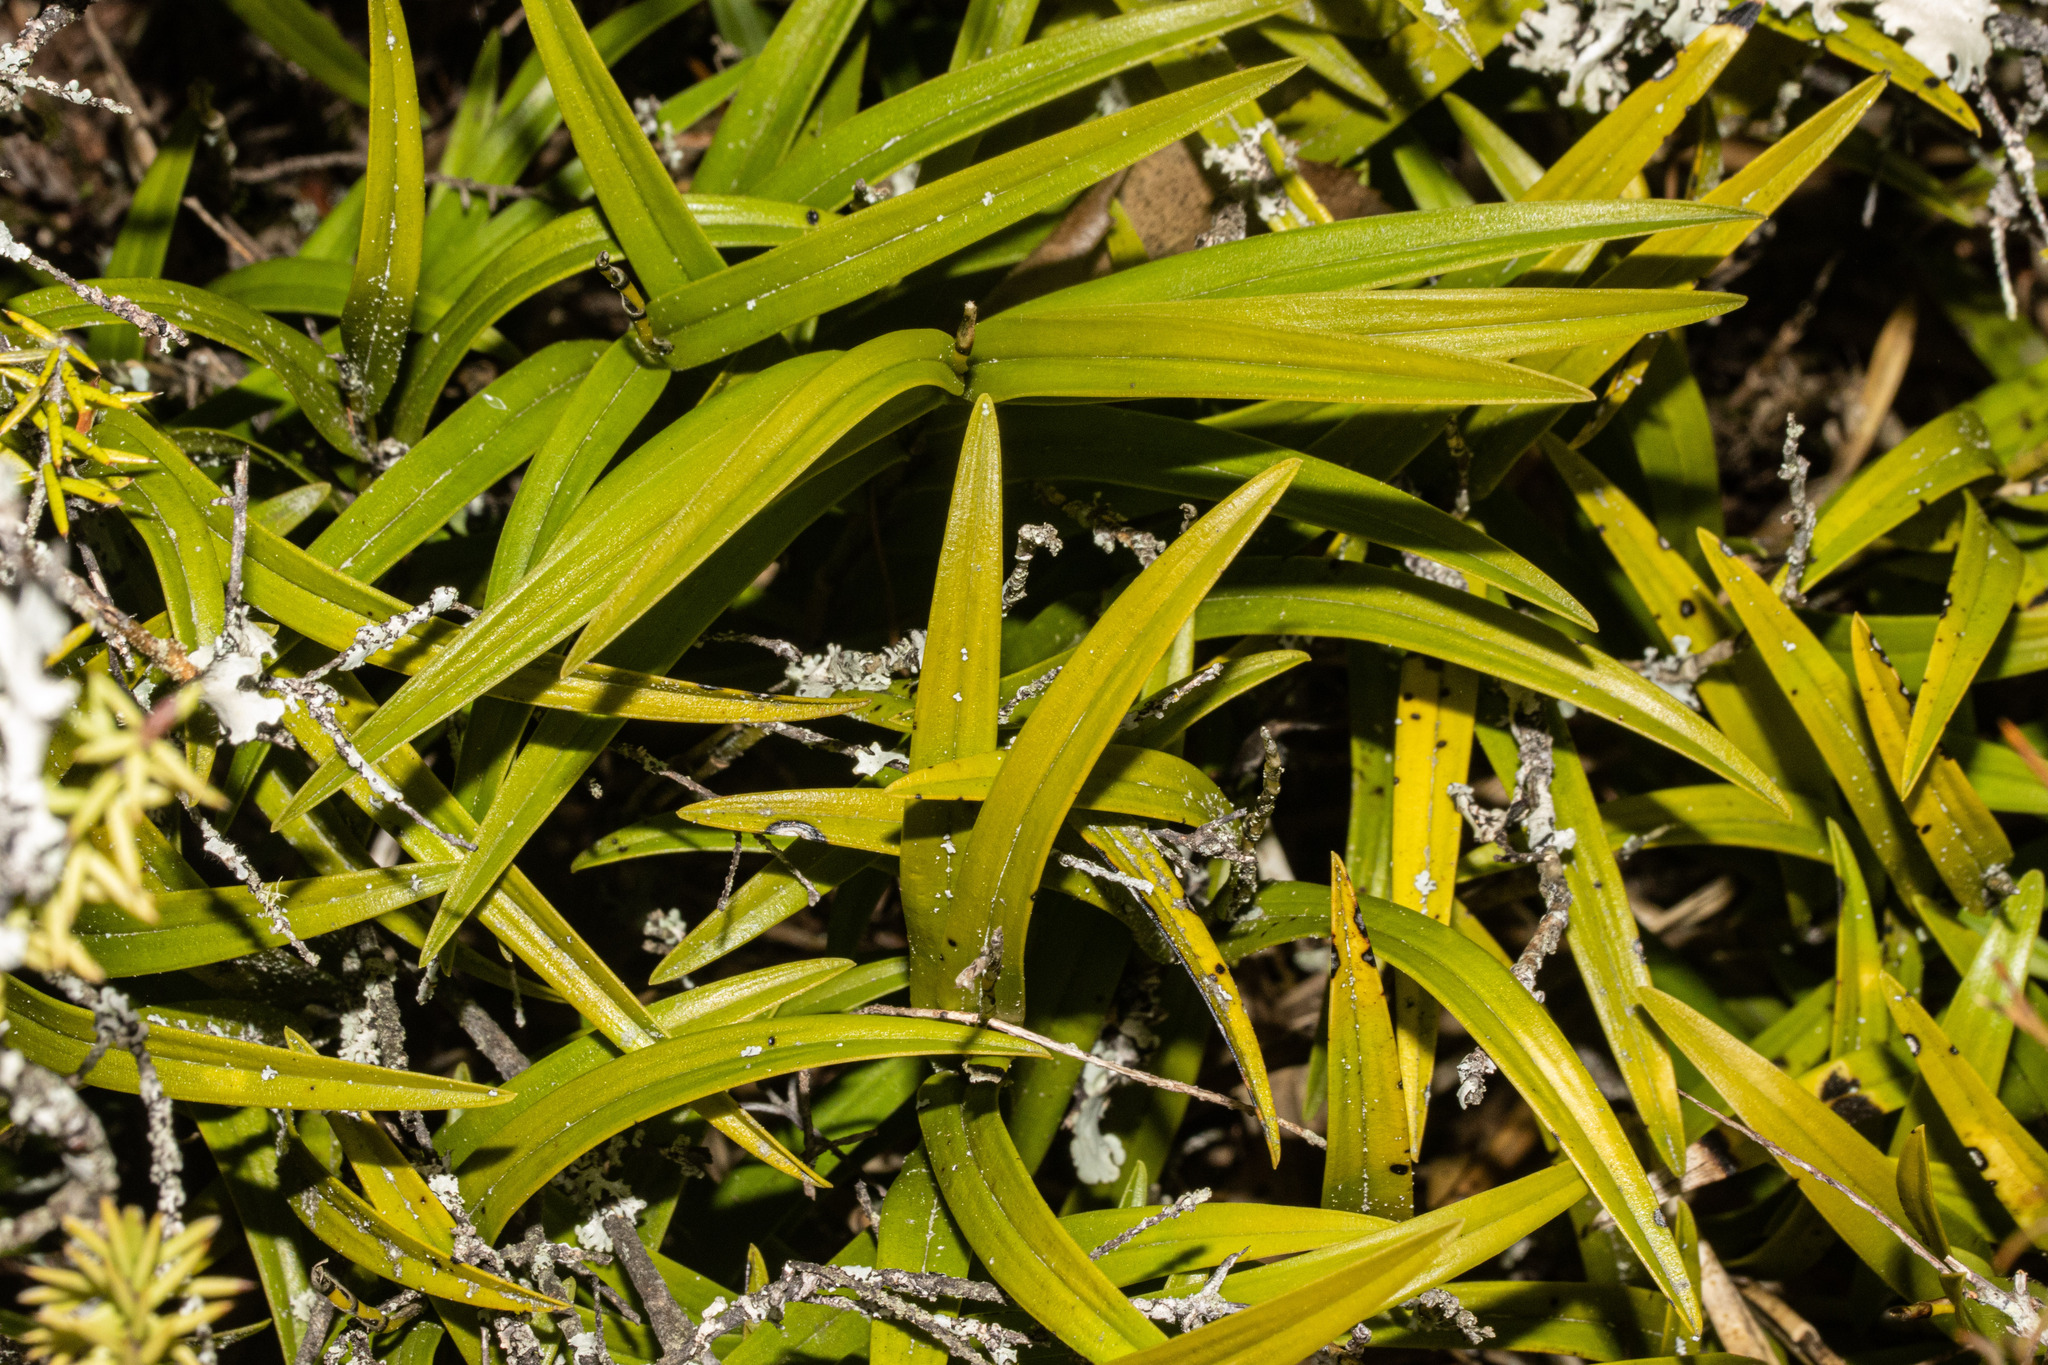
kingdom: Plantae
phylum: Tracheophyta
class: Liliopsida
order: Asparagales
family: Orchidaceae
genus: Earina
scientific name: Earina autumnalis
